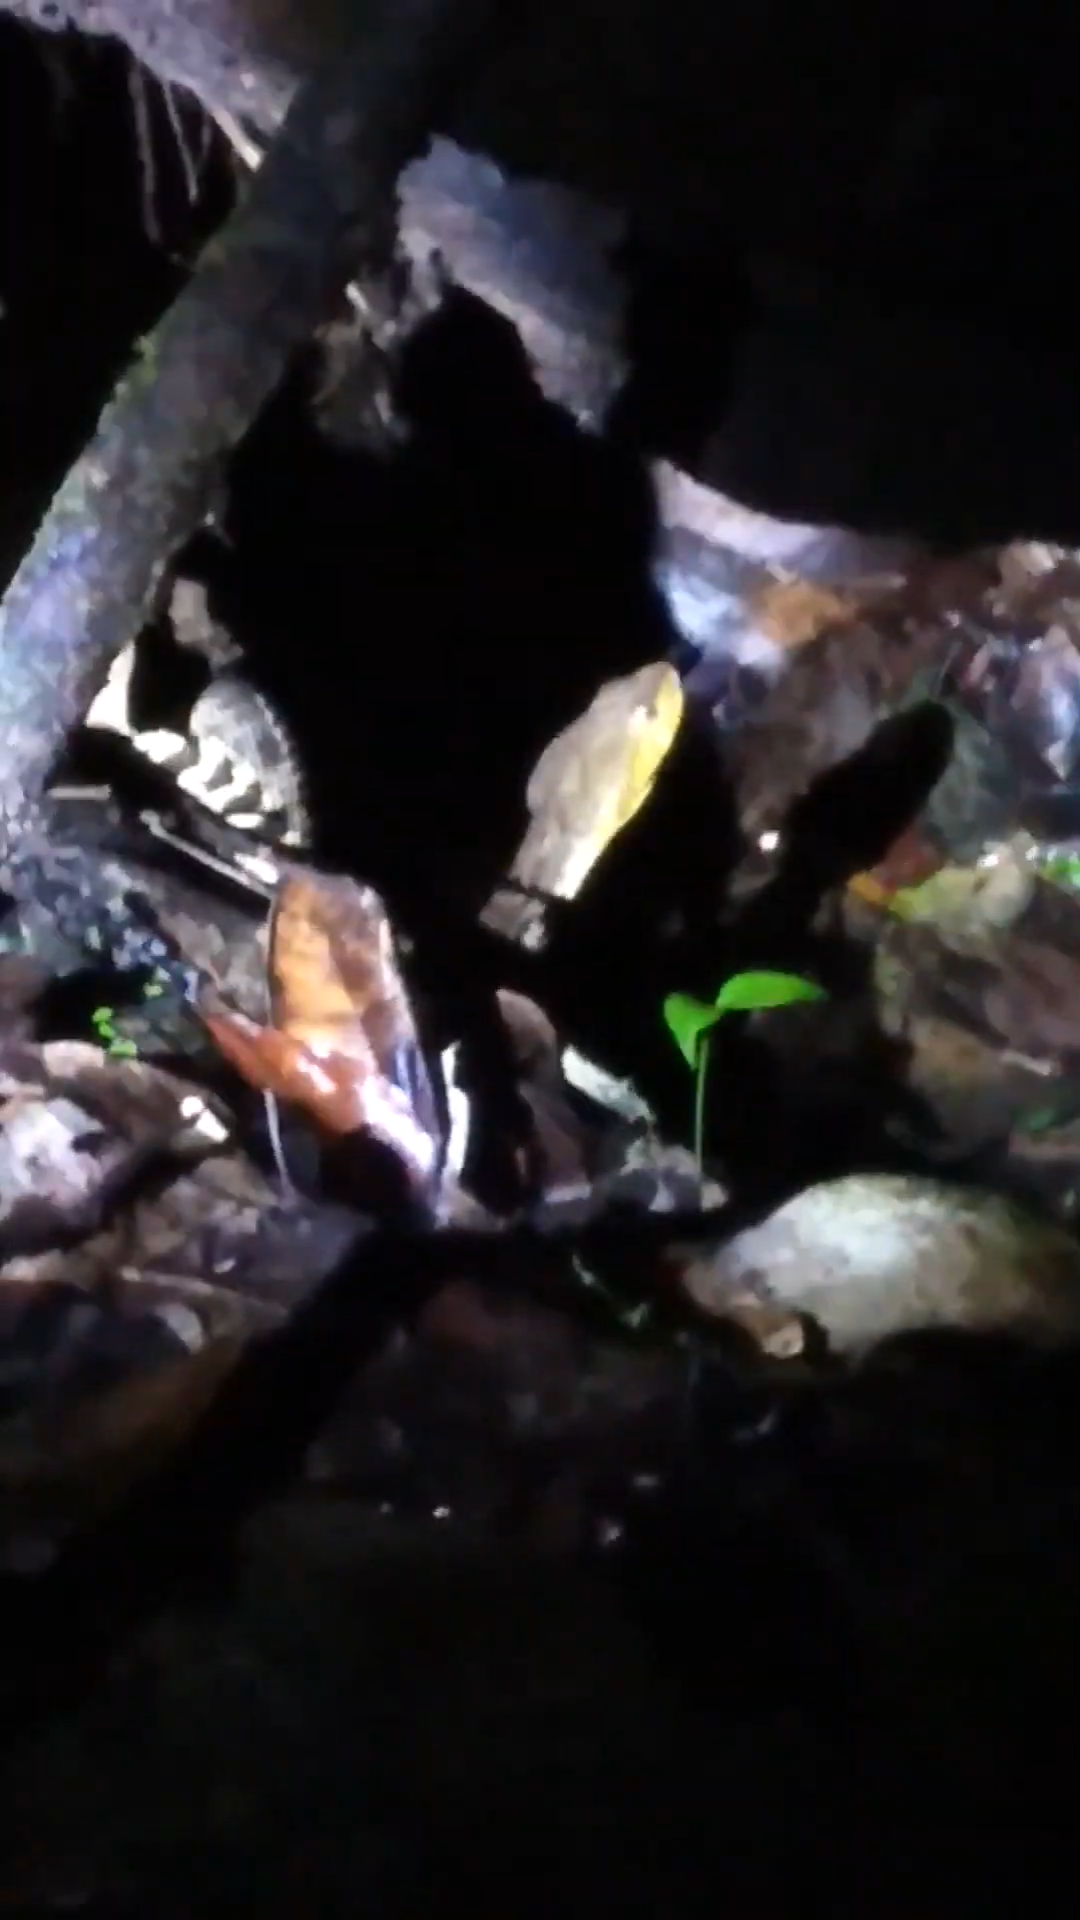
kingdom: Animalia
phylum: Chordata
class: Squamata
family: Viperidae
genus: Bothrops
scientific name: Bothrops asper
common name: Terciopelo
